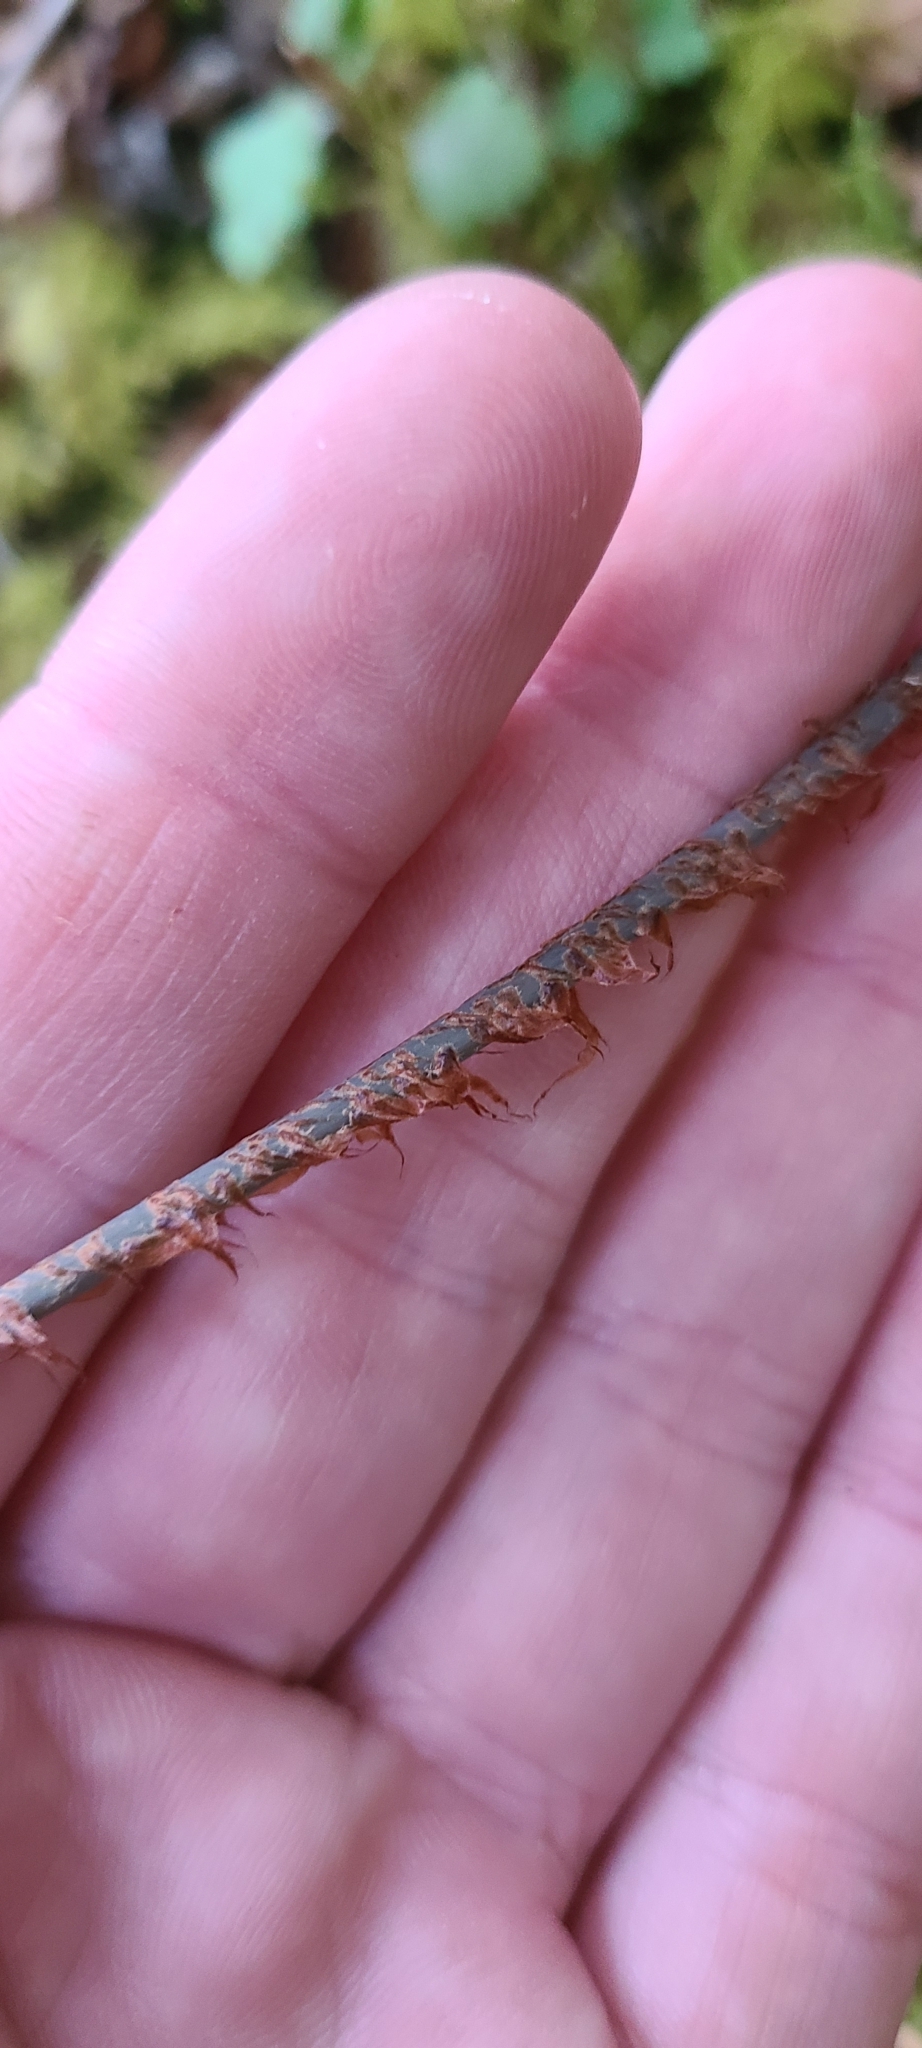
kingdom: Plantae
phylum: Tracheophyta
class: Polypodiopsida
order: Gleicheniales
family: Gleicheniaceae
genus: Sticherus
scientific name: Sticherus cunninghamii
